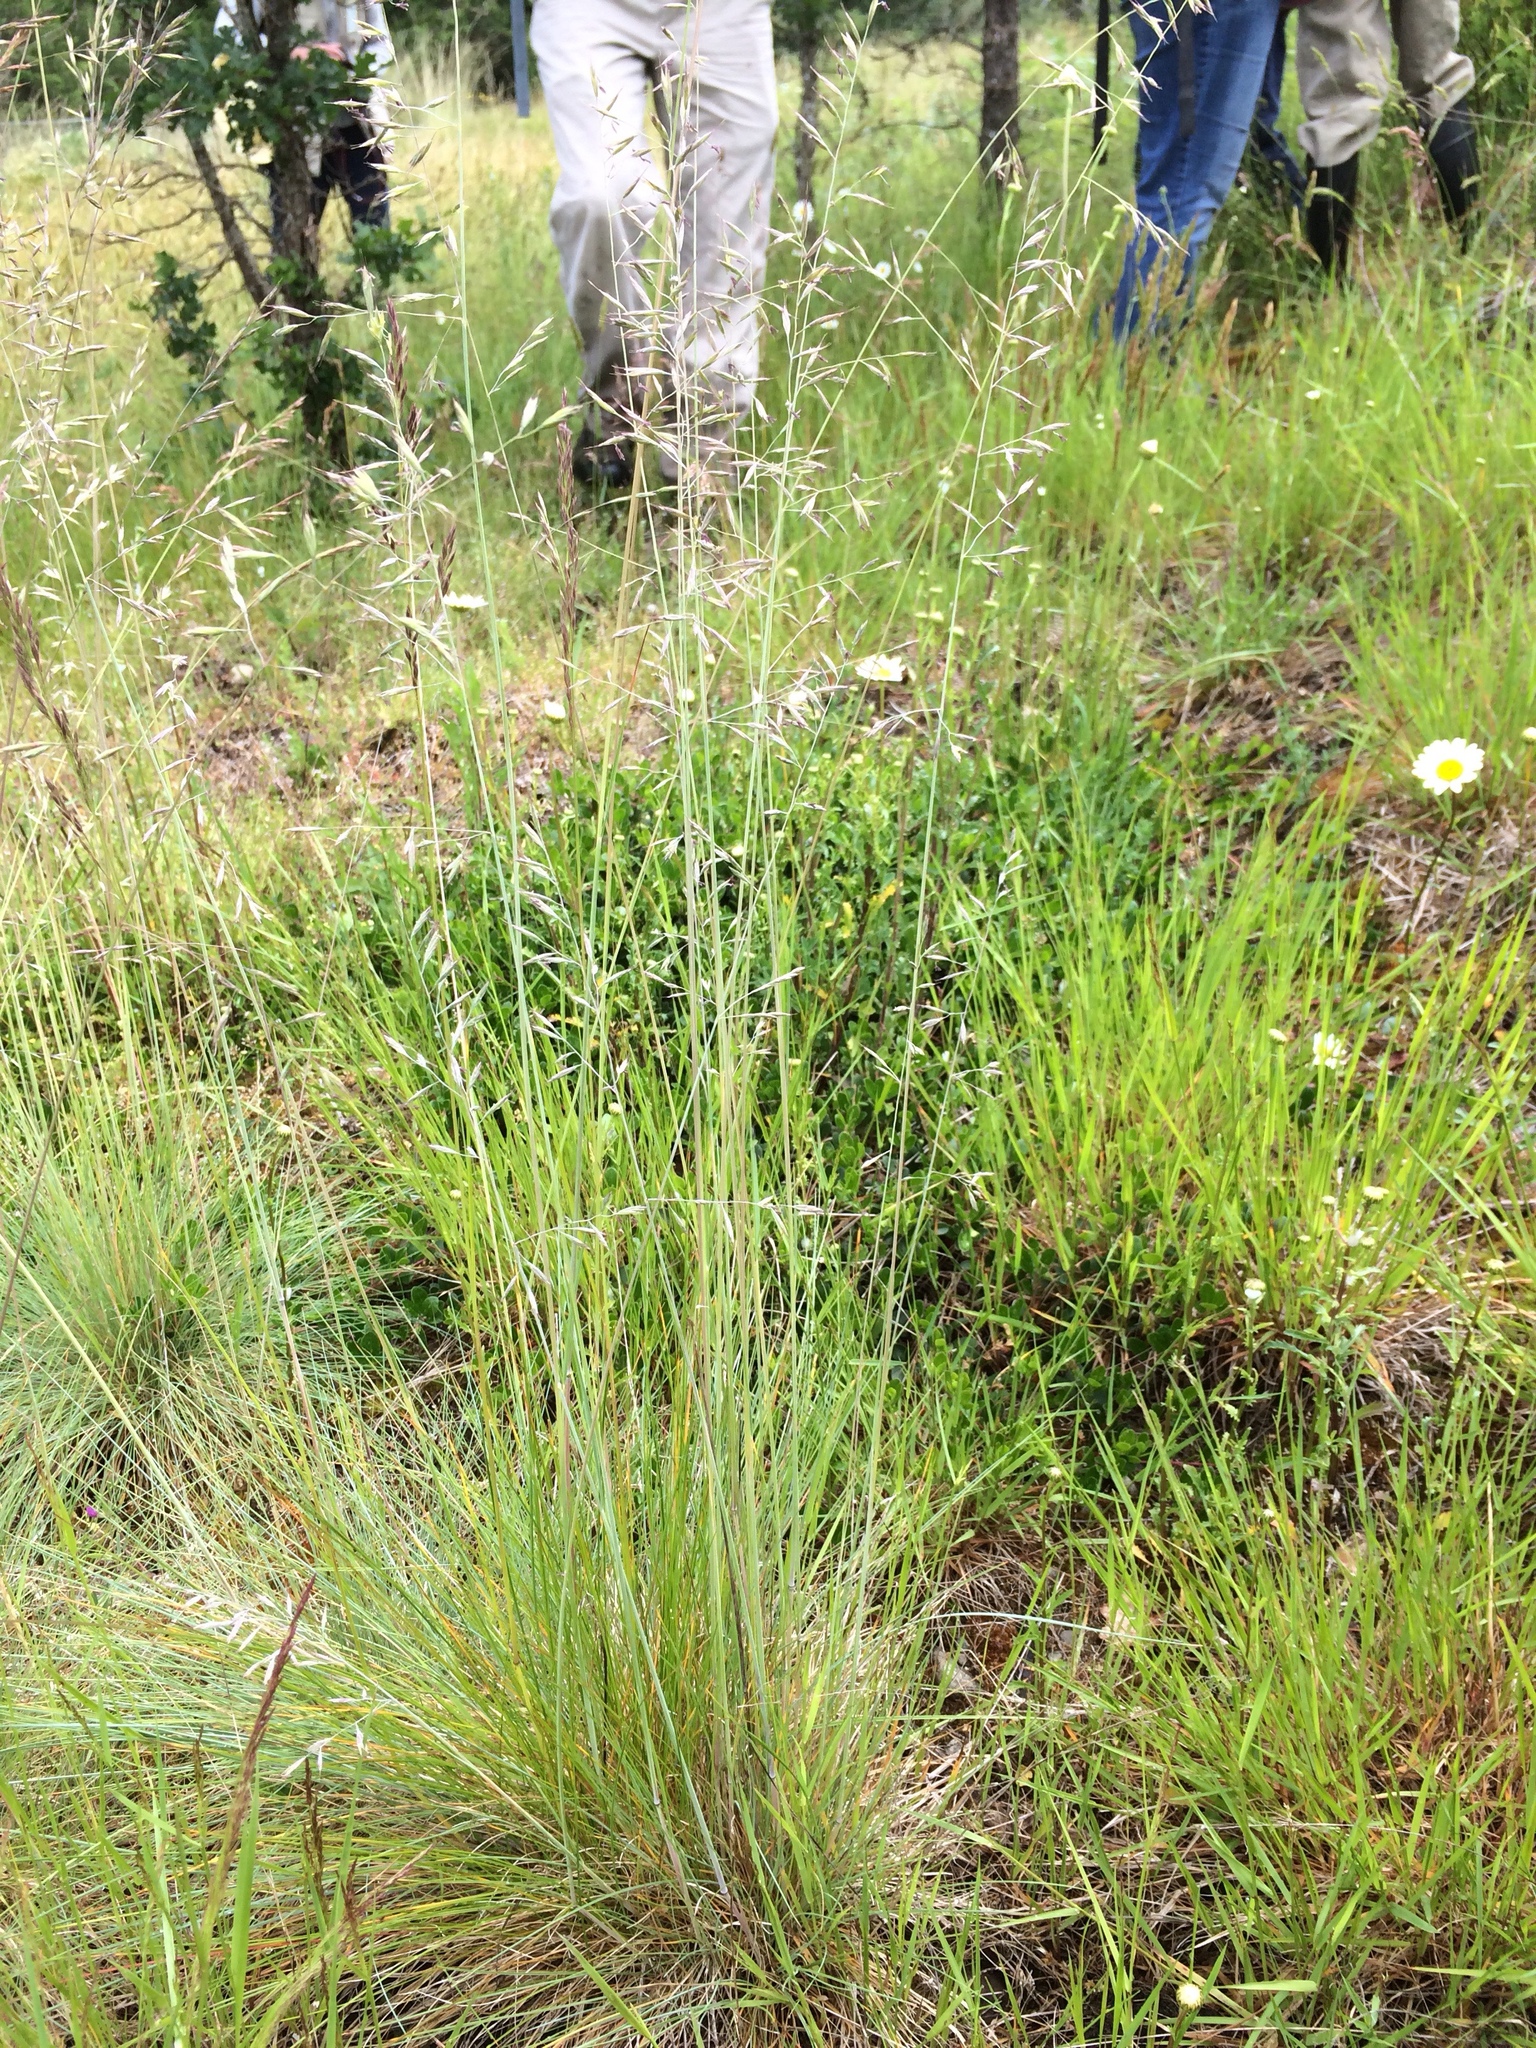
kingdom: Plantae
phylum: Tracheophyta
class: Liliopsida
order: Poales
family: Poaceae
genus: Festuca
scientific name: Festuca idahoensis
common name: Idaho fescue
